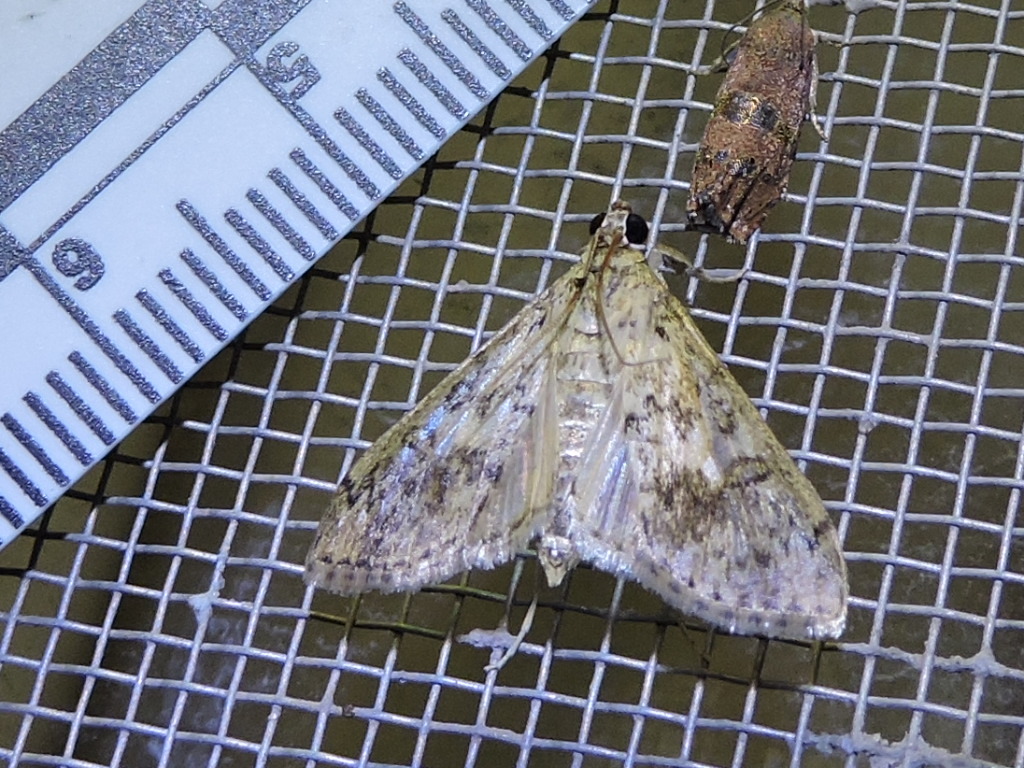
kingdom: Animalia
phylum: Arthropoda
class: Insecta
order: Lepidoptera
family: Crambidae
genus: Asciodes
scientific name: Asciodes gordialis
